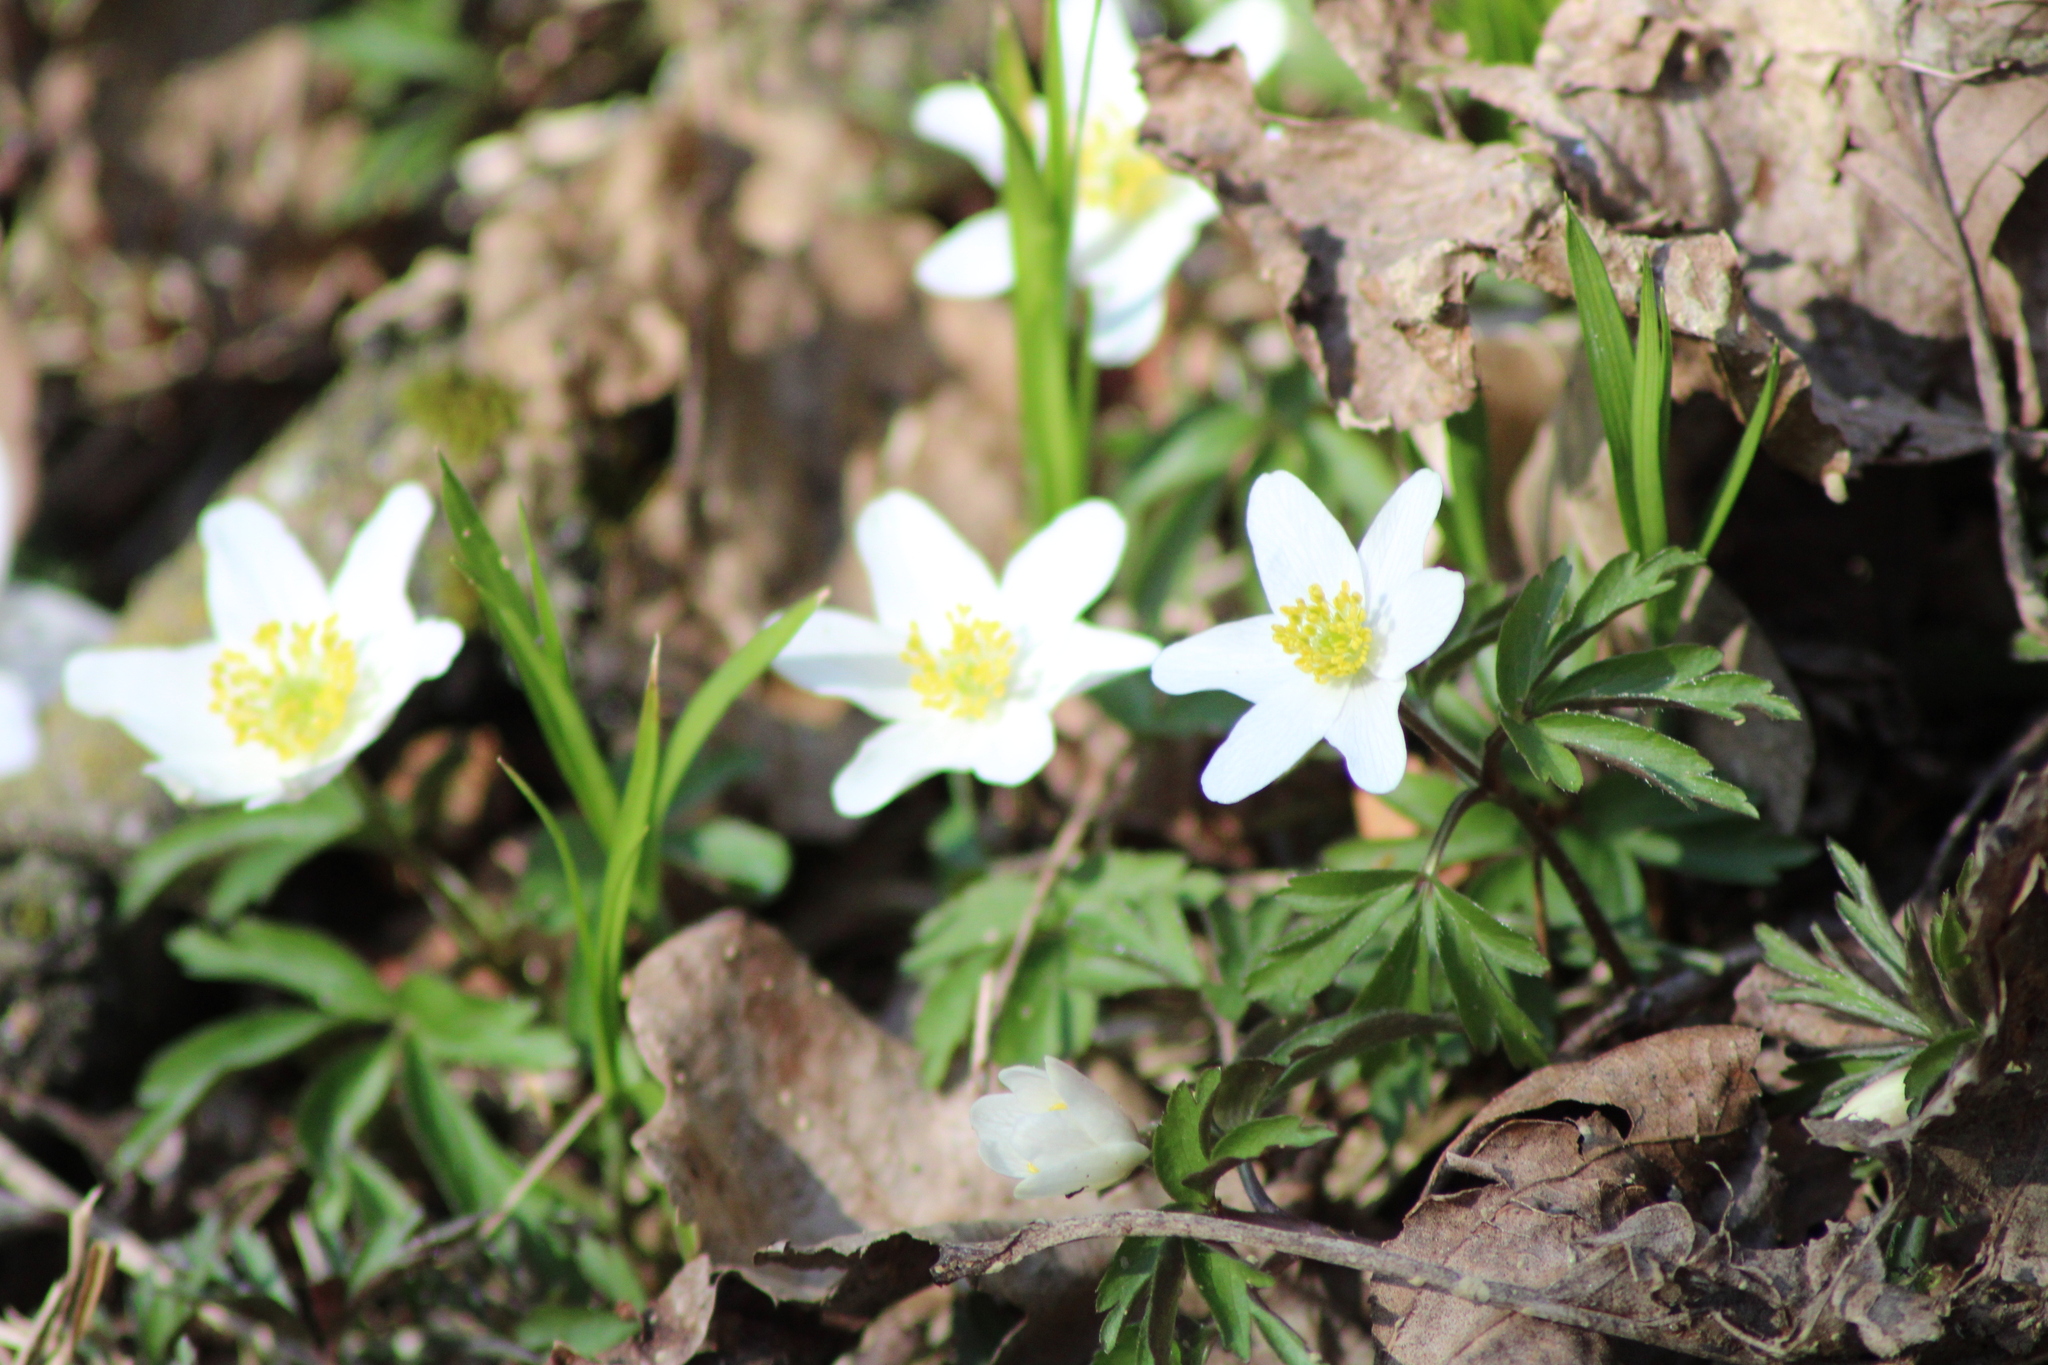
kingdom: Plantae
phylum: Tracheophyta
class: Magnoliopsida
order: Ranunculales
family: Ranunculaceae
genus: Anemone
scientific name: Anemone nemorosa
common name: Wood anemone
